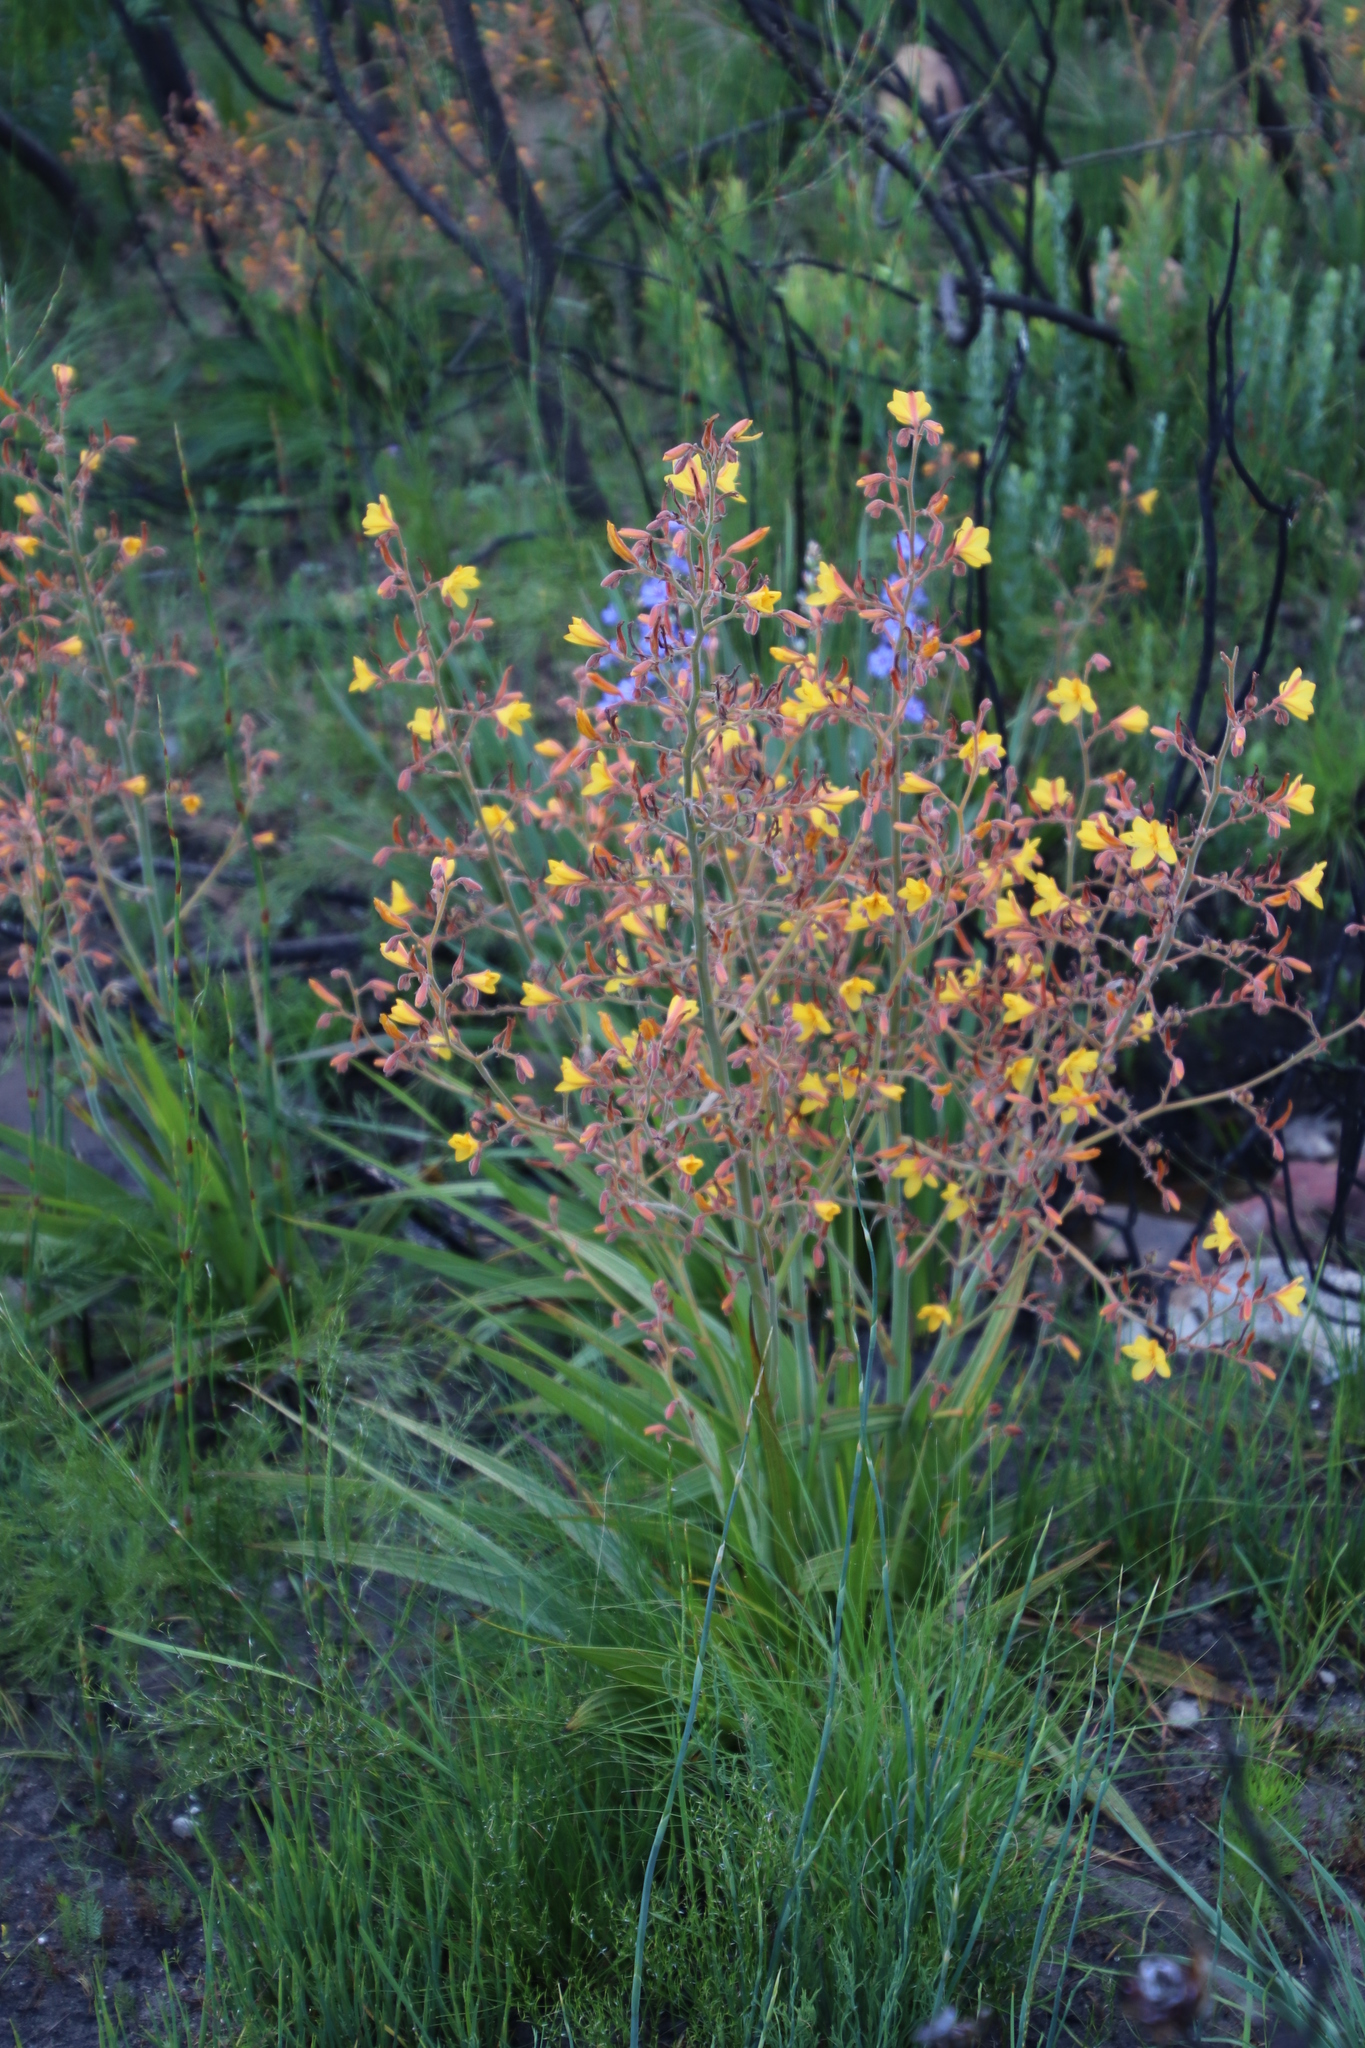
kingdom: Plantae
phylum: Tracheophyta
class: Liliopsida
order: Commelinales
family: Haemodoraceae
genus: Wachendorfia
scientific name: Wachendorfia paniculata
